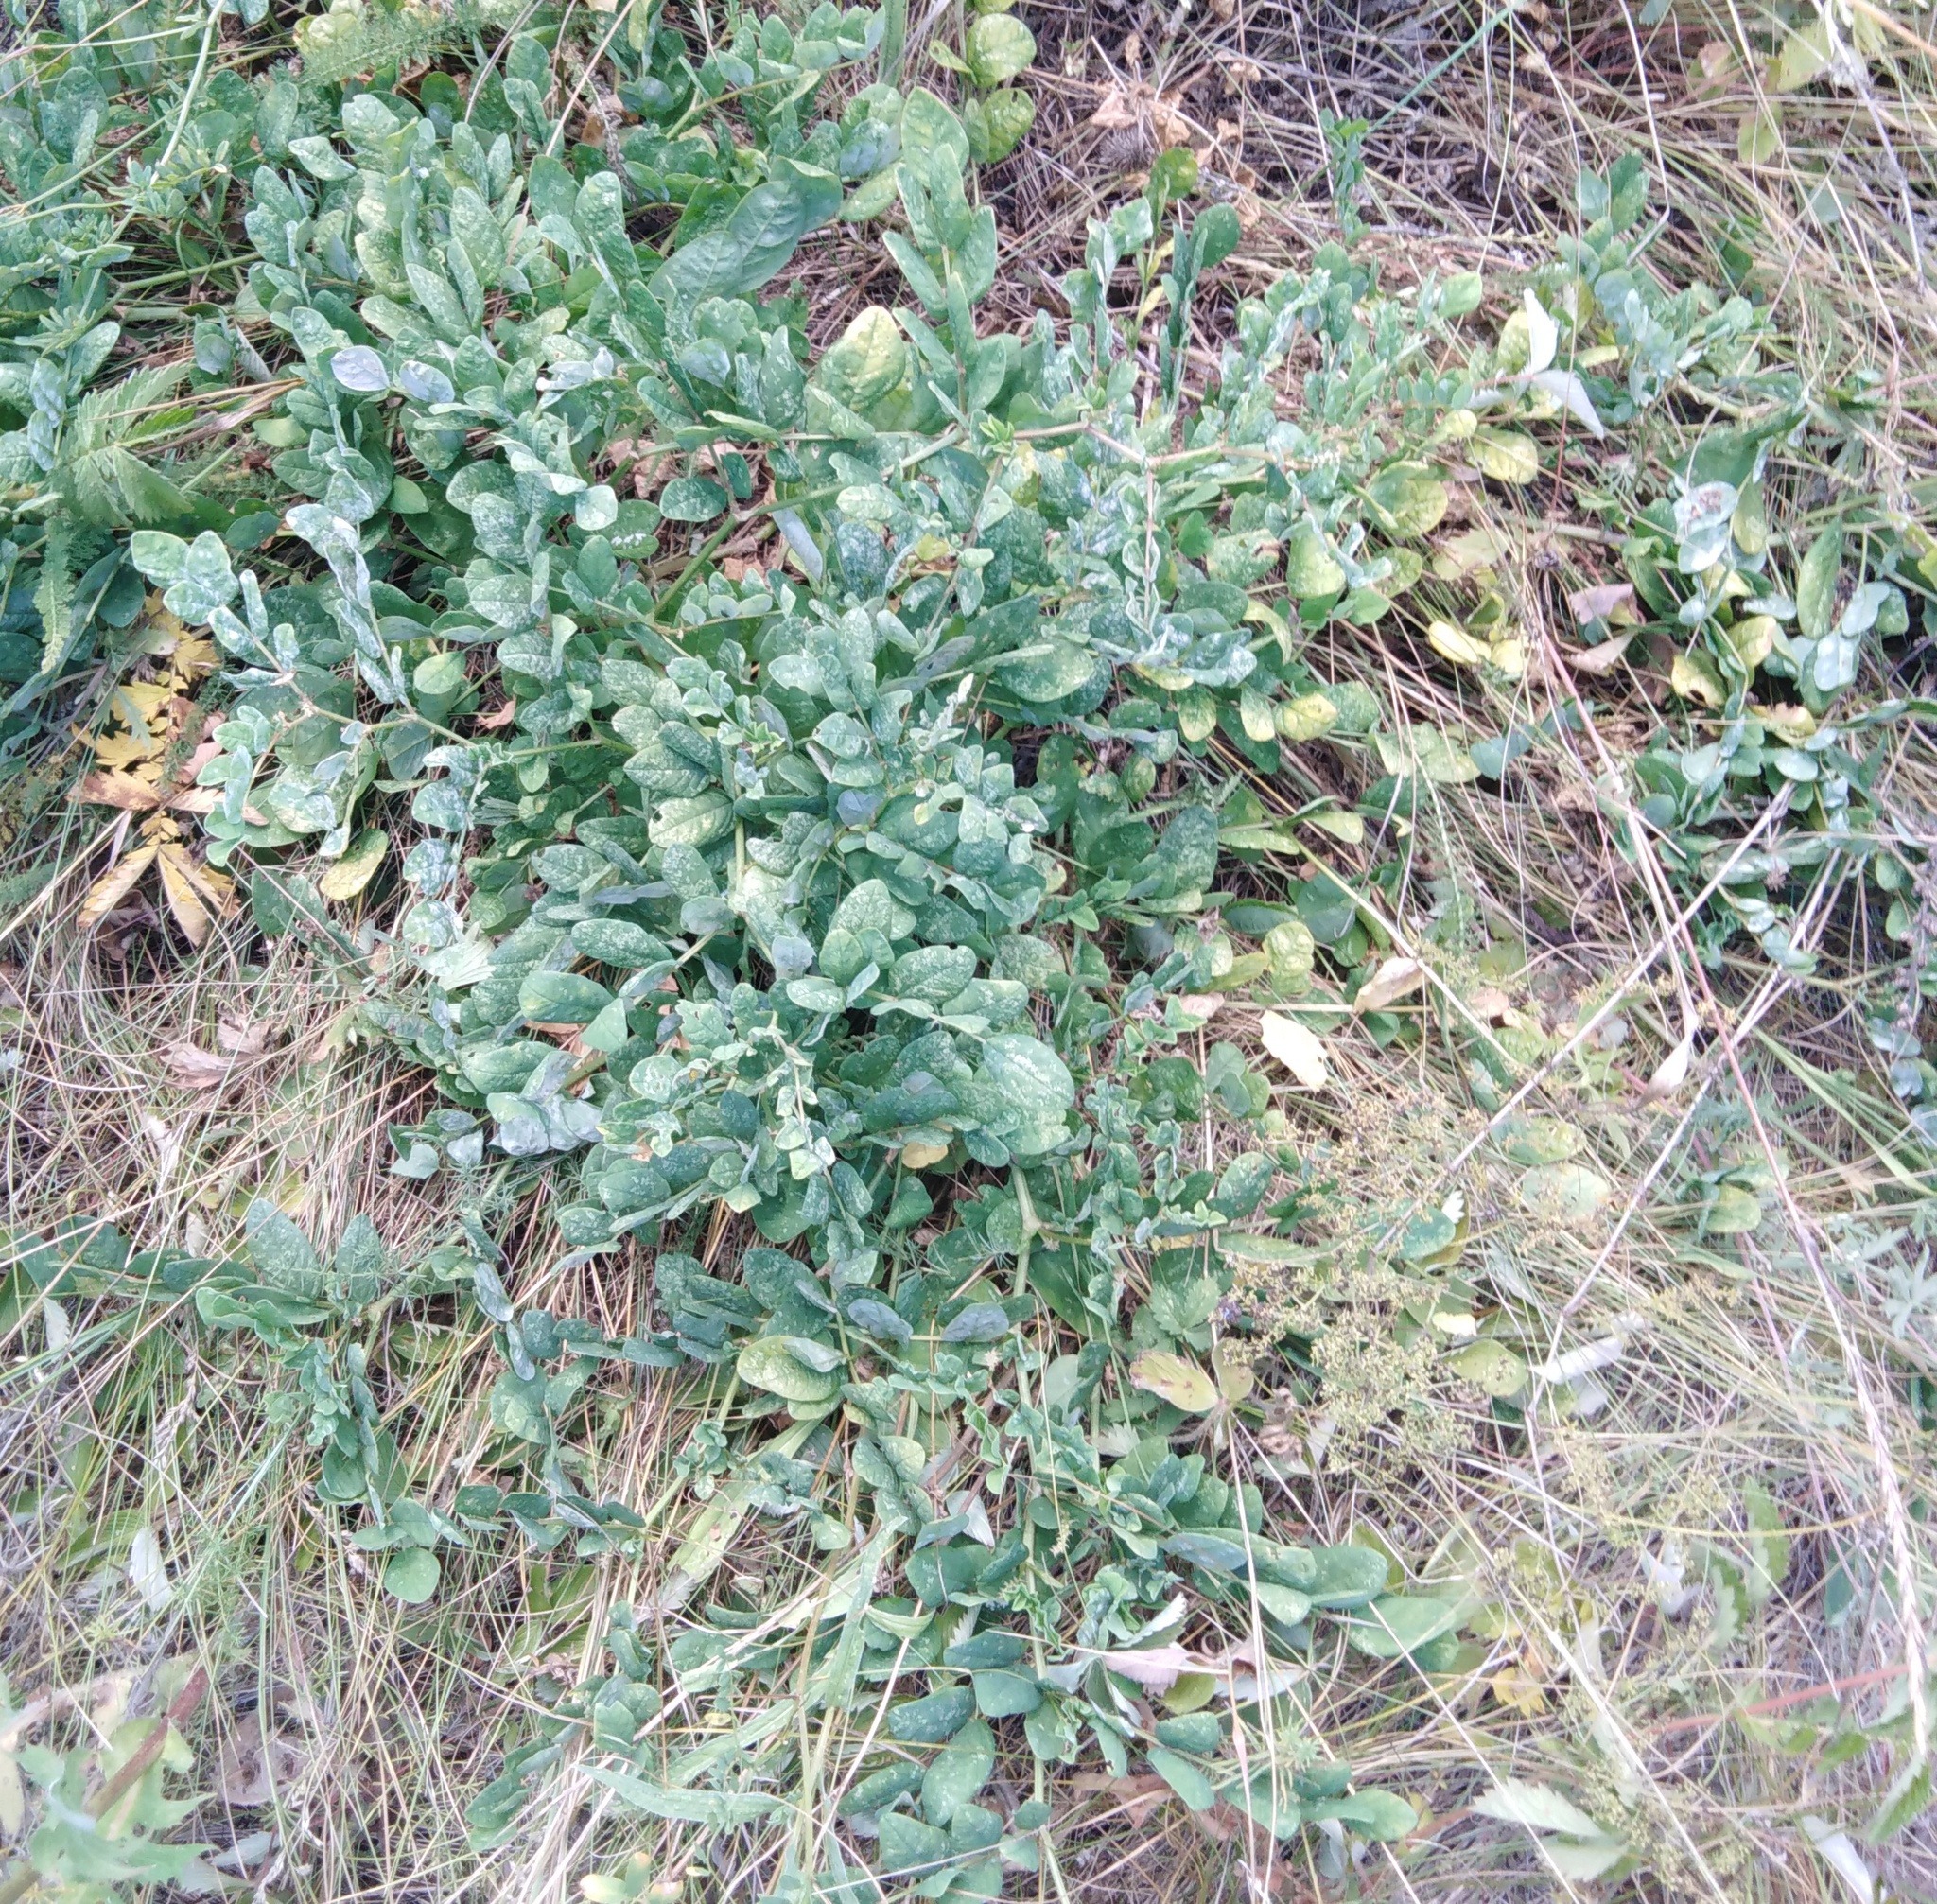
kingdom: Plantae
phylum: Tracheophyta
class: Magnoliopsida
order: Fabales
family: Fabaceae
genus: Astragalus
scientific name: Astragalus glycyphyllos
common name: Wild liquorice
